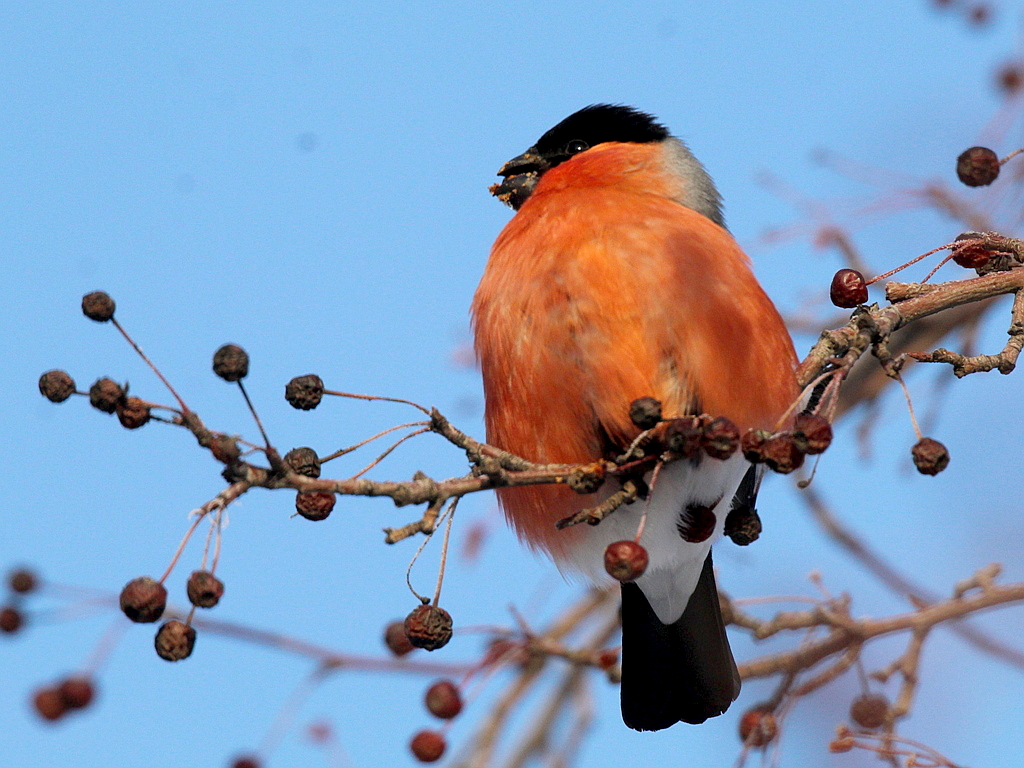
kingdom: Animalia
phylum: Chordata
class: Aves
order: Passeriformes
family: Fringillidae
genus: Pyrrhula
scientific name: Pyrrhula pyrrhula
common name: Eurasian bullfinch
